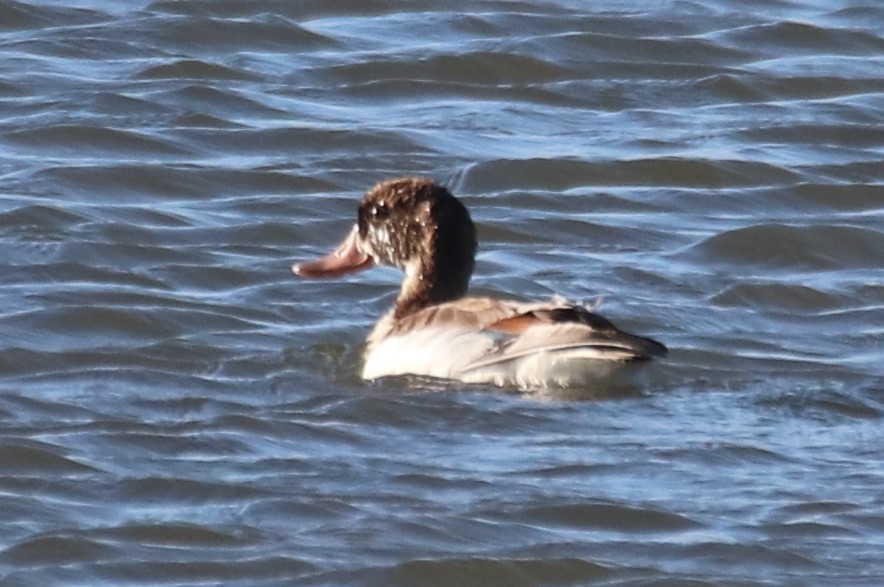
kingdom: Animalia
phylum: Chordata
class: Aves
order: Anseriformes
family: Anatidae
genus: Tadorna
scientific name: Tadorna tadorna
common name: Common shelduck
